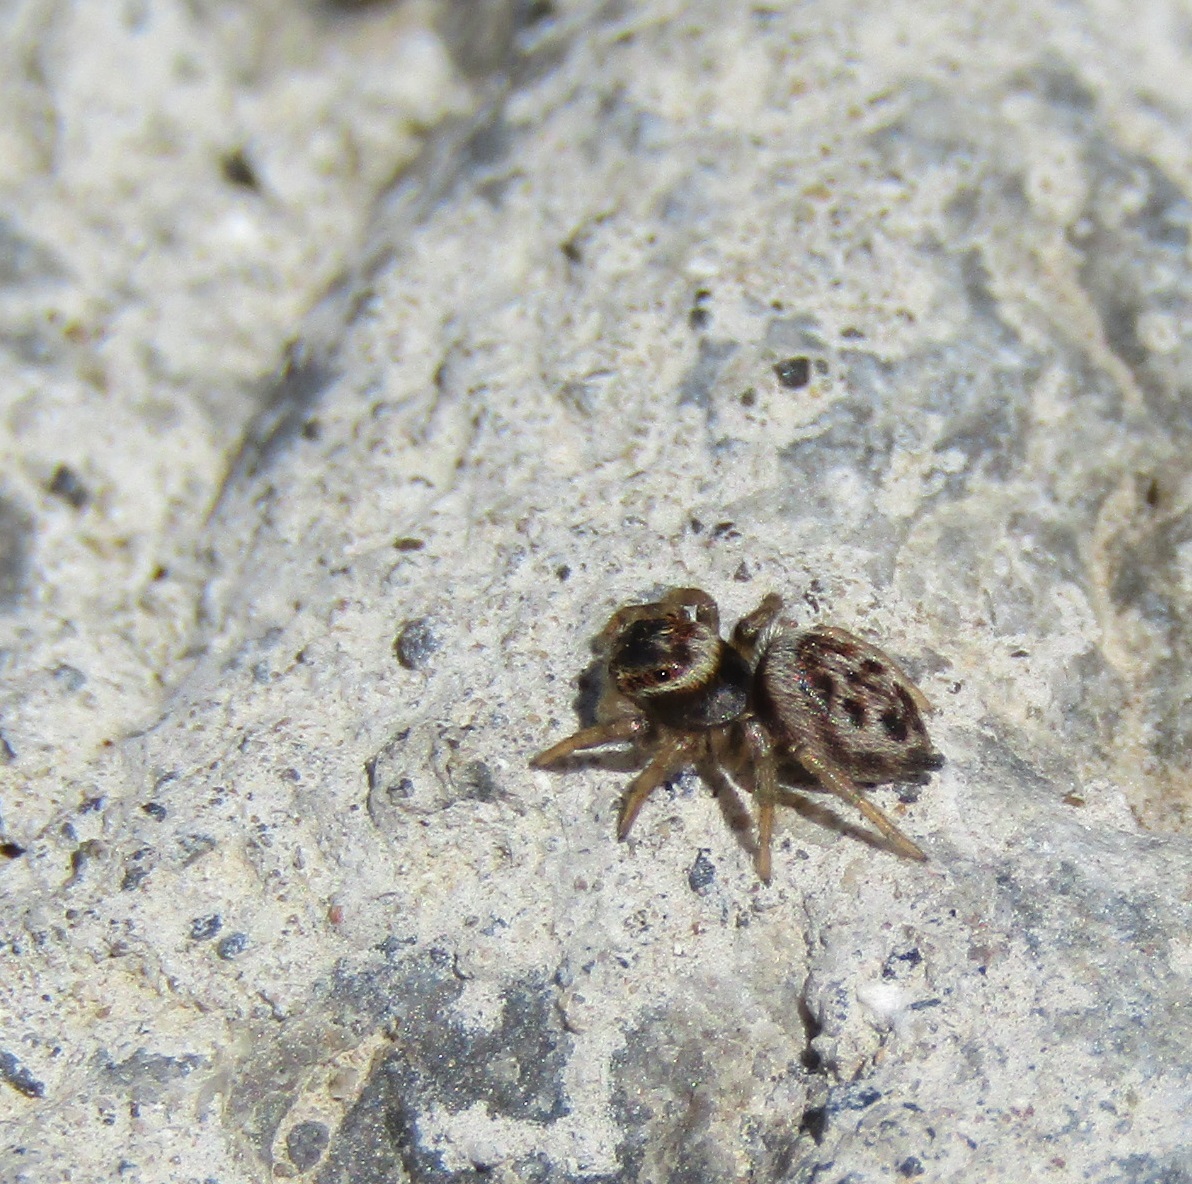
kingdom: Animalia
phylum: Arthropoda
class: Arachnida
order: Araneae
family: Salticidae
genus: Maratus
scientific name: Maratus griseus
